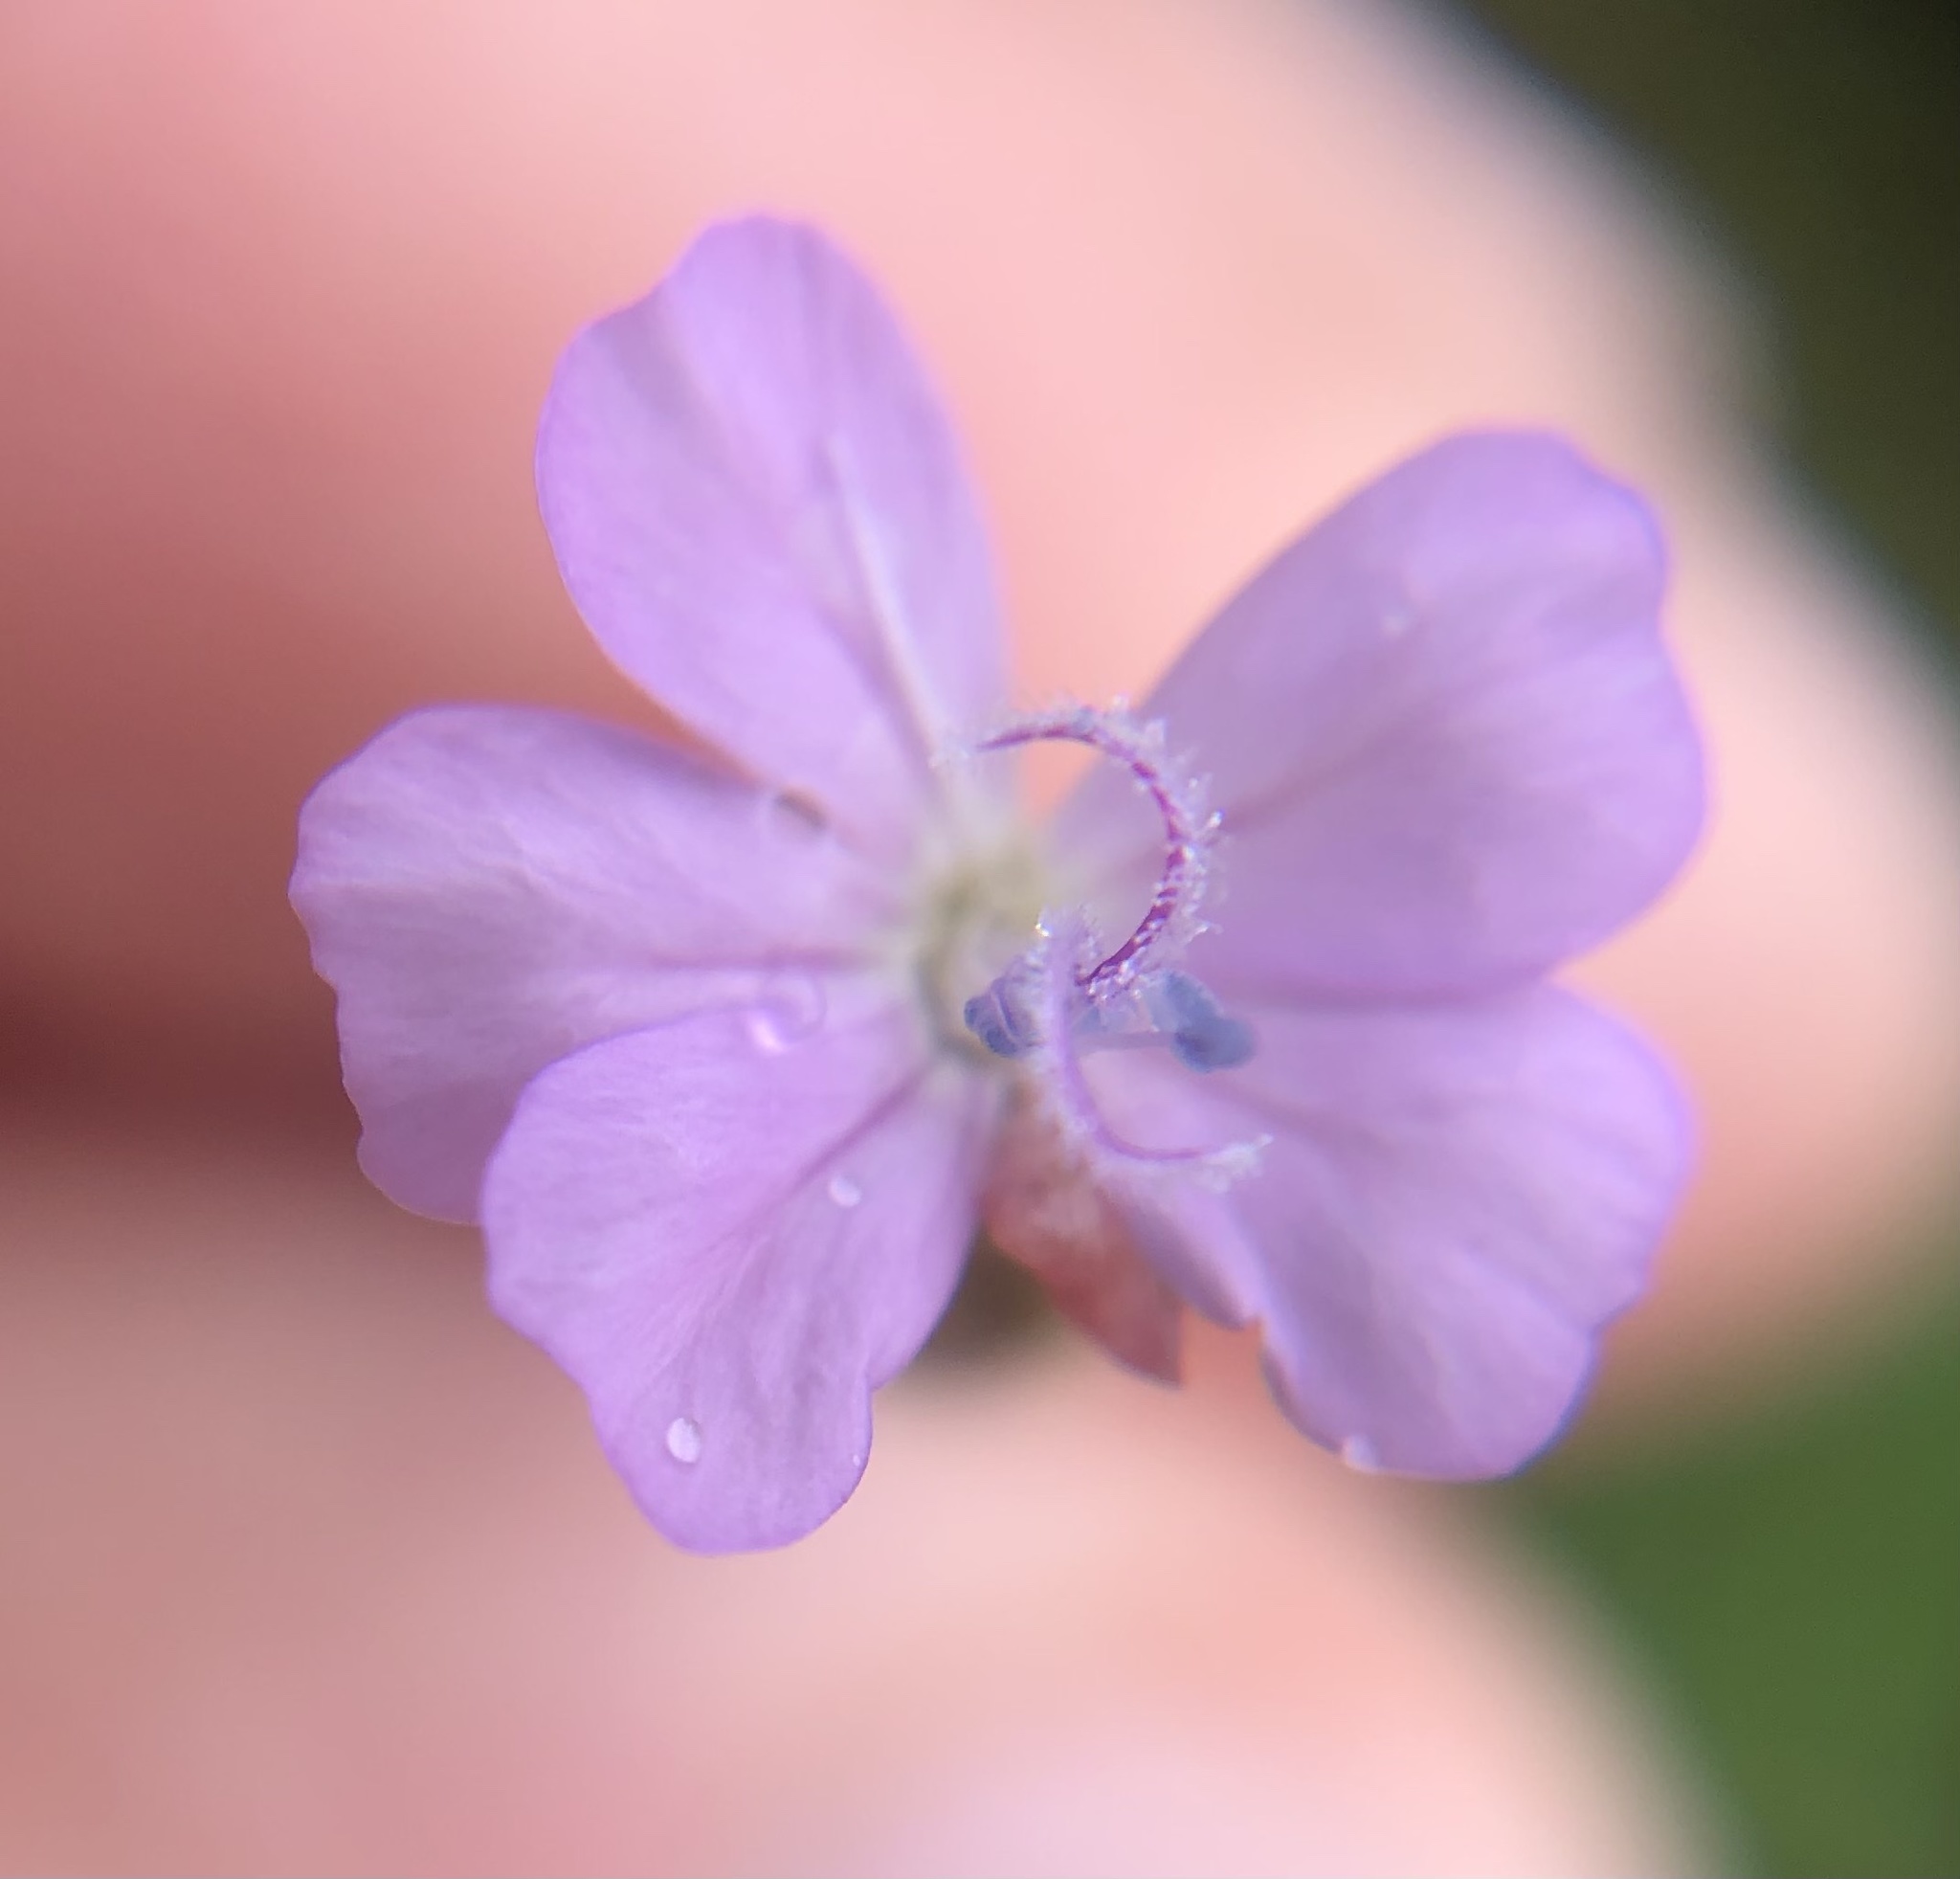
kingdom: Plantae
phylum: Tracheophyta
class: Magnoliopsida
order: Caryophyllales
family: Caryophyllaceae
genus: Petrorhagia
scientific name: Petrorhagia prolifera
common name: Proliferous pink
